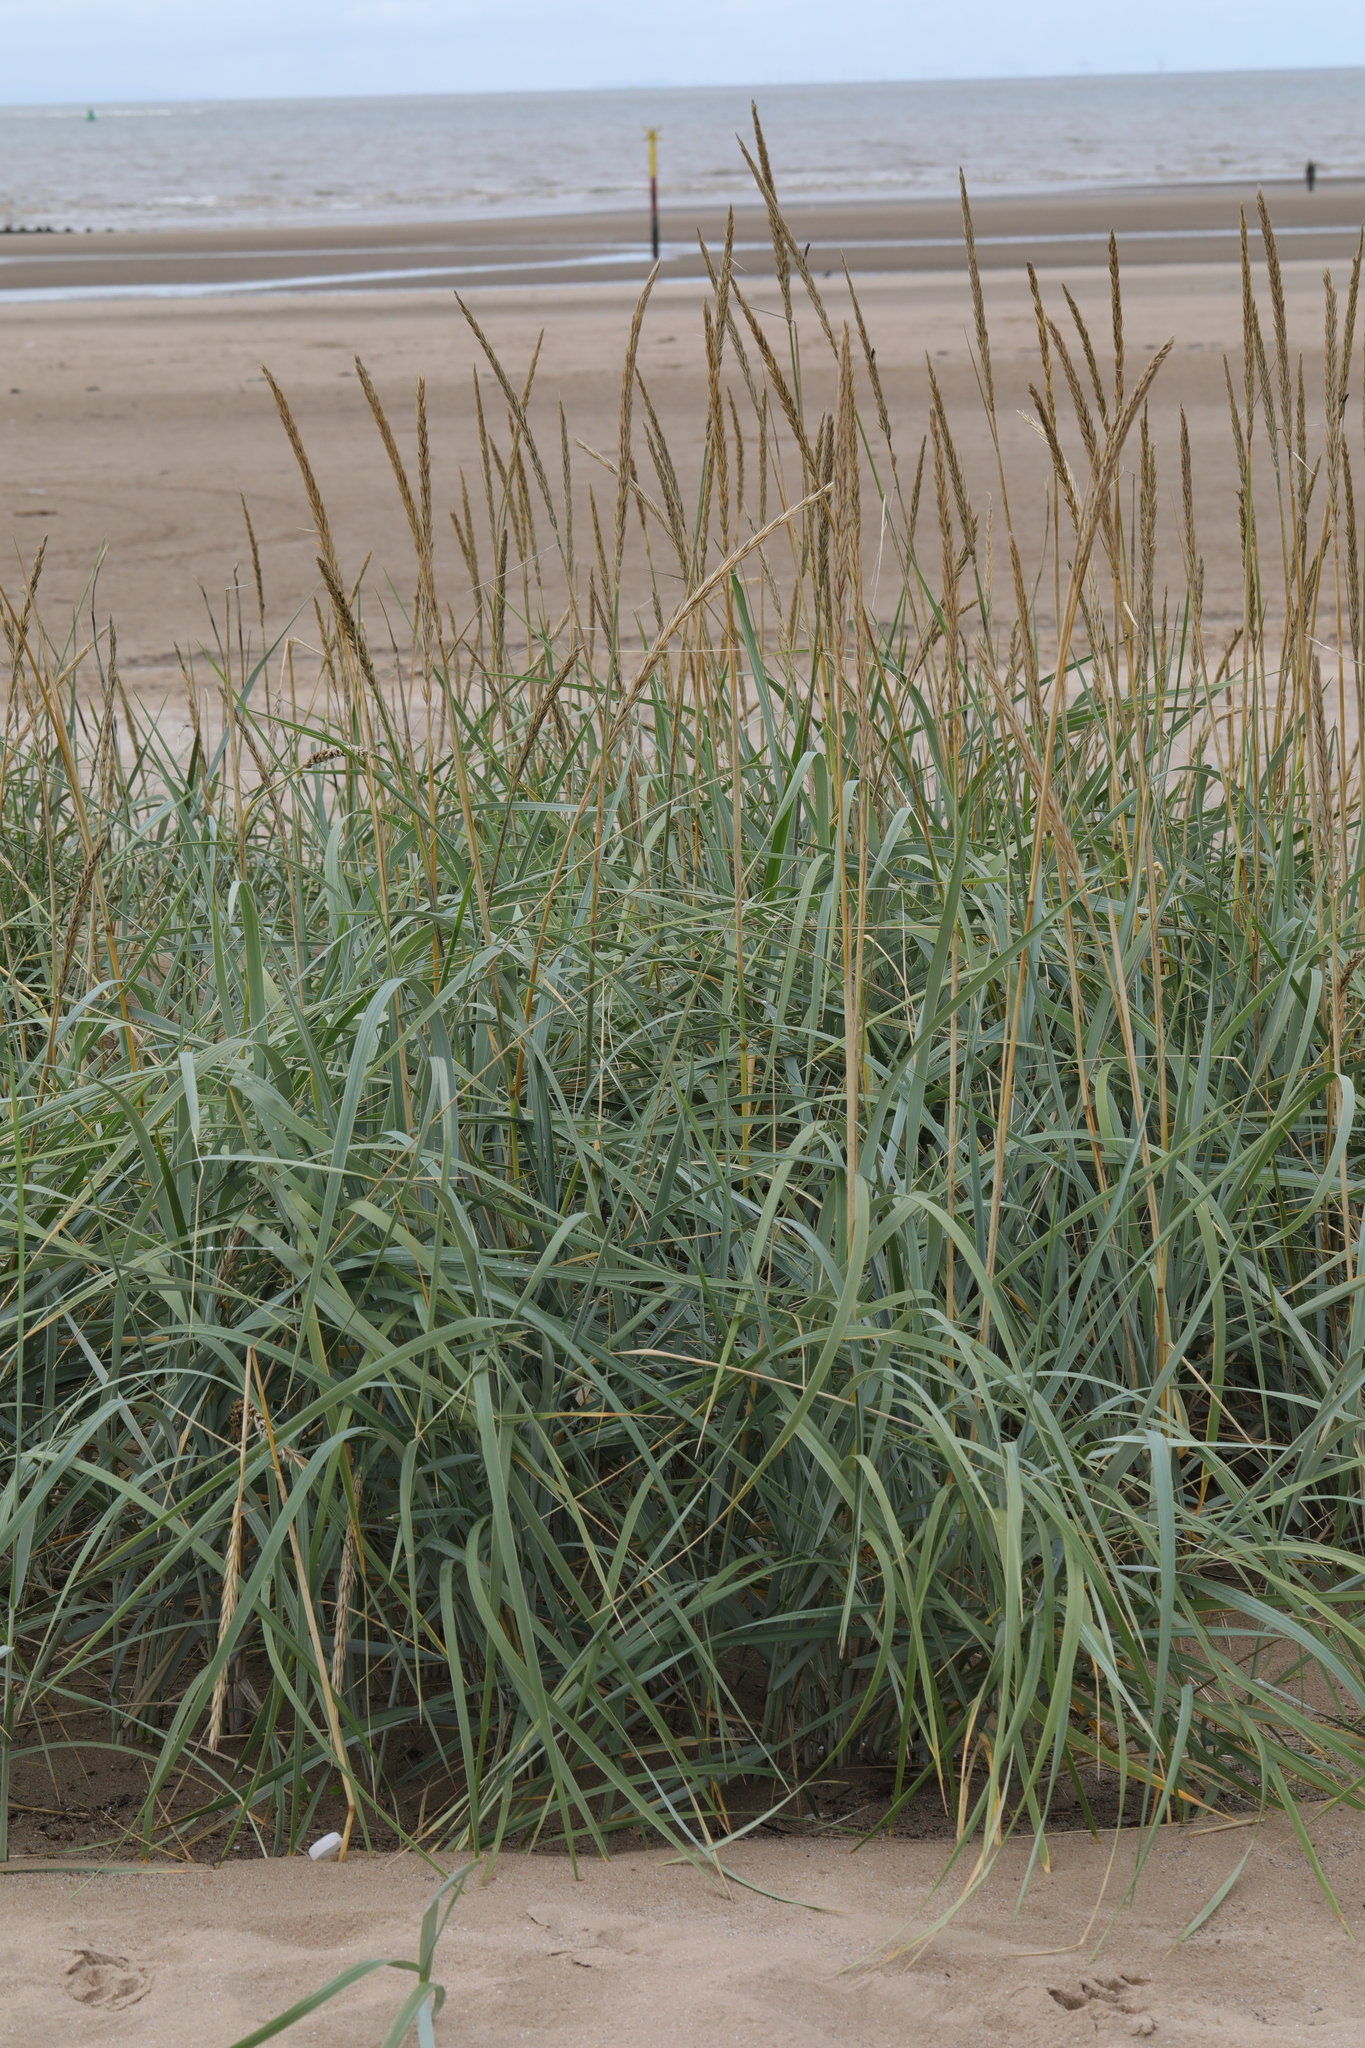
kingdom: Plantae
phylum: Tracheophyta
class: Liliopsida
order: Poales
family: Poaceae
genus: Leymus
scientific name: Leymus arenarius
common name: Lyme-grass
